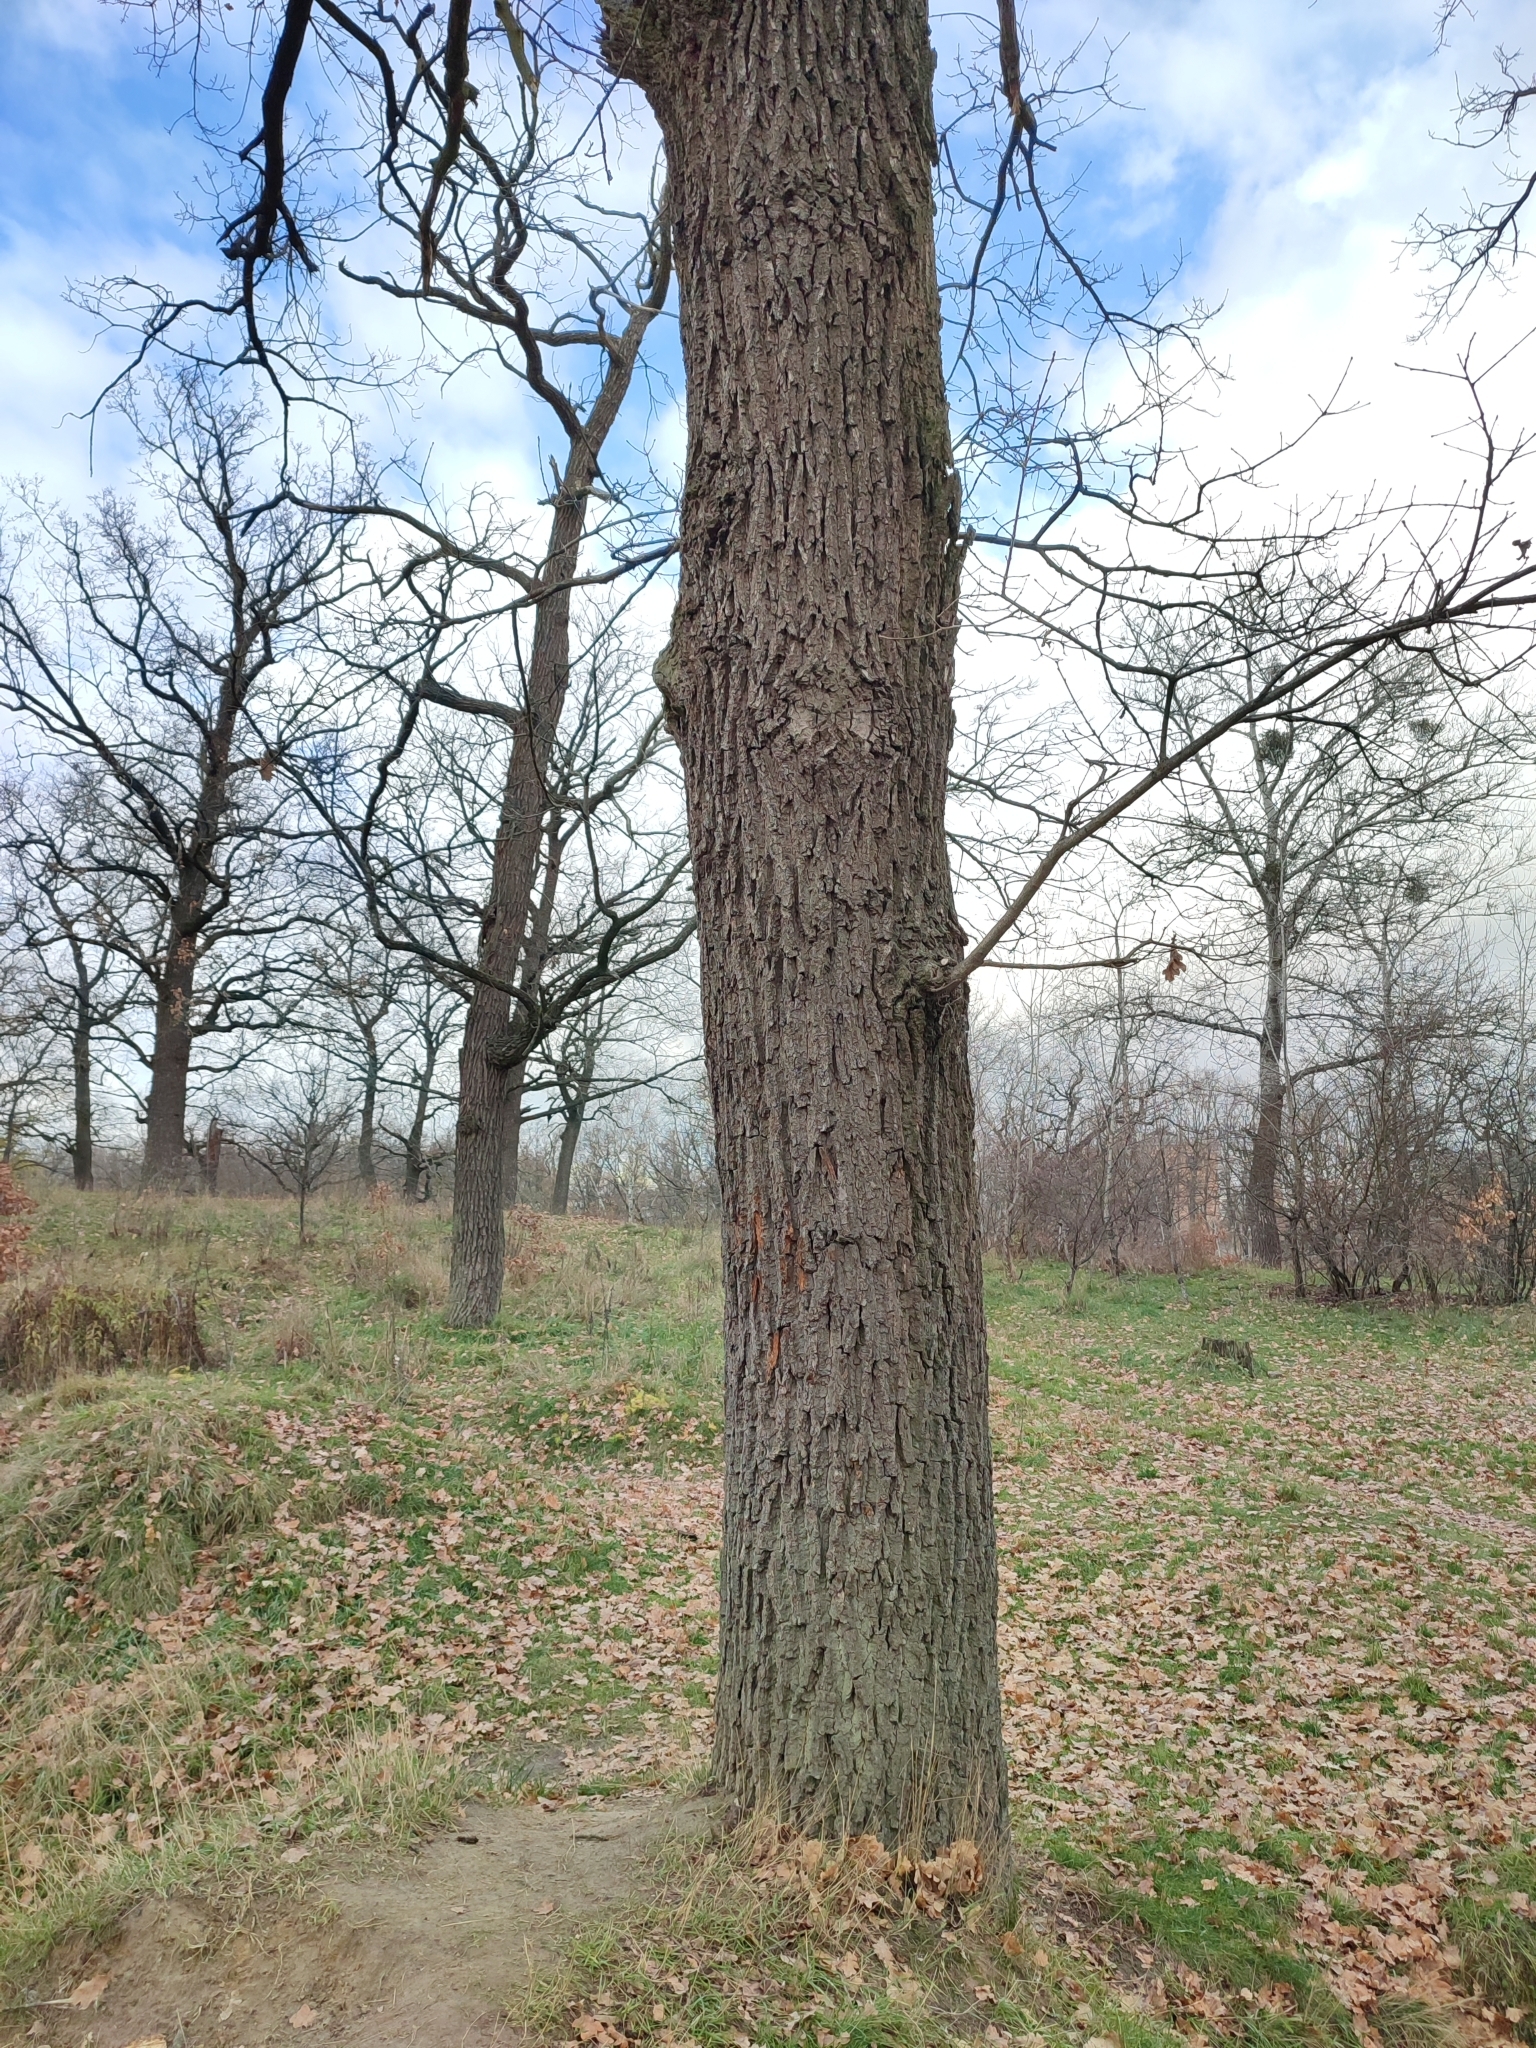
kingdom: Plantae
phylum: Tracheophyta
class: Magnoliopsida
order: Fagales
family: Fagaceae
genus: Quercus
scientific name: Quercus robur
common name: Pedunculate oak
